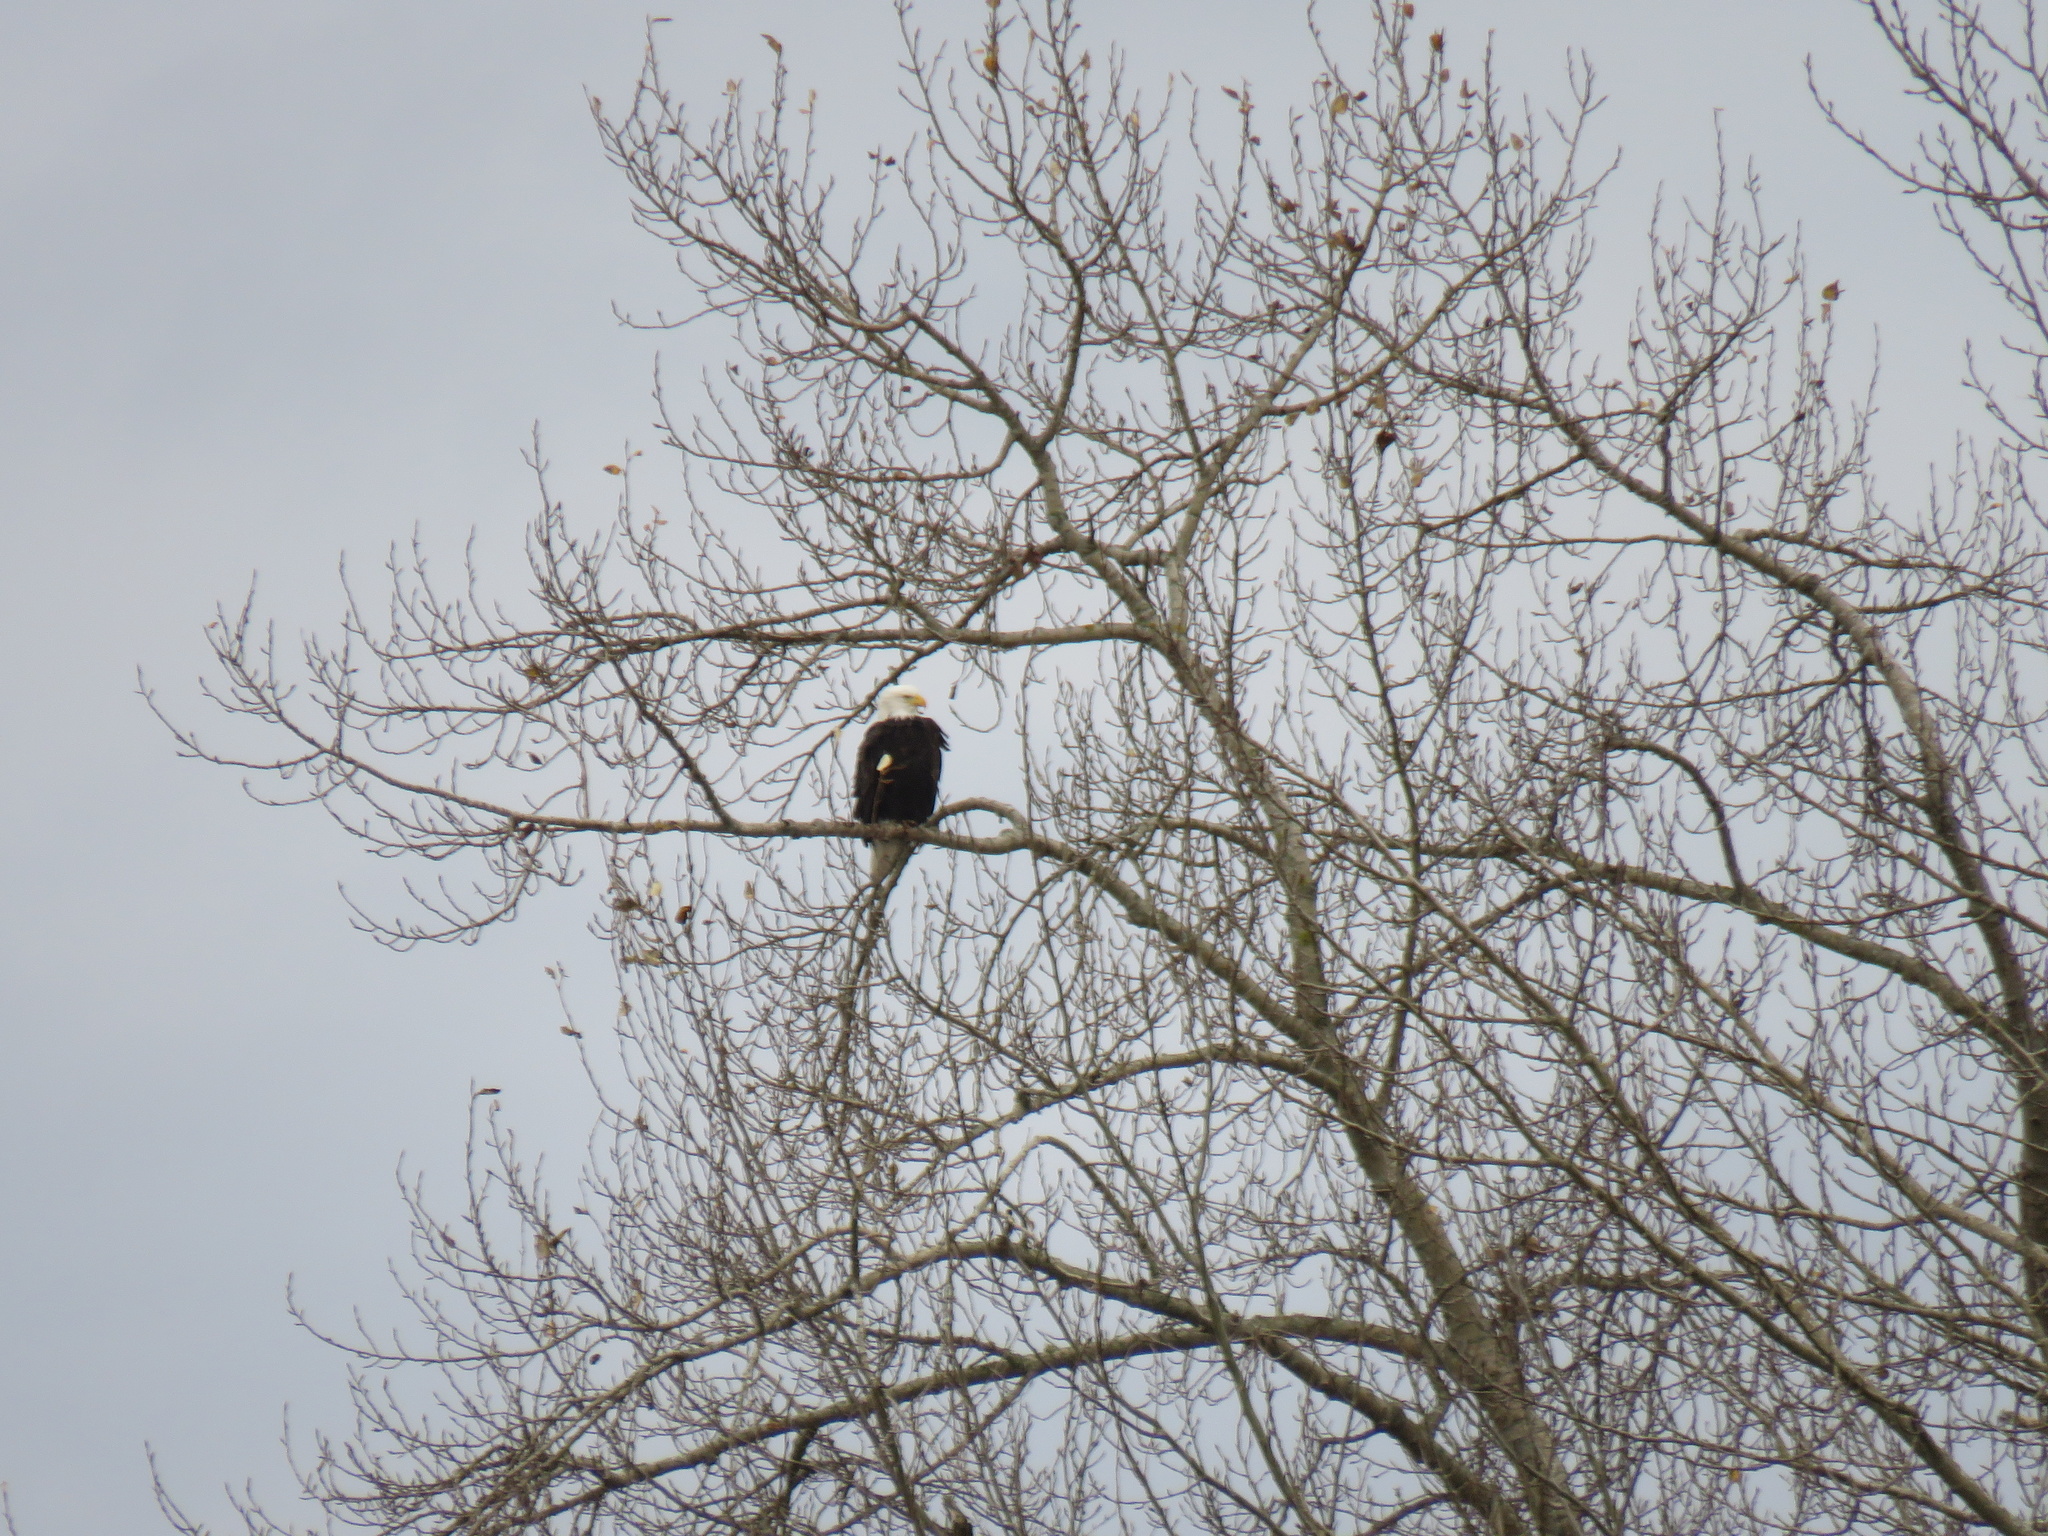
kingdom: Animalia
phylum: Chordata
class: Aves
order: Accipitriformes
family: Accipitridae
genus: Haliaeetus
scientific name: Haliaeetus leucocephalus
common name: Bald eagle
